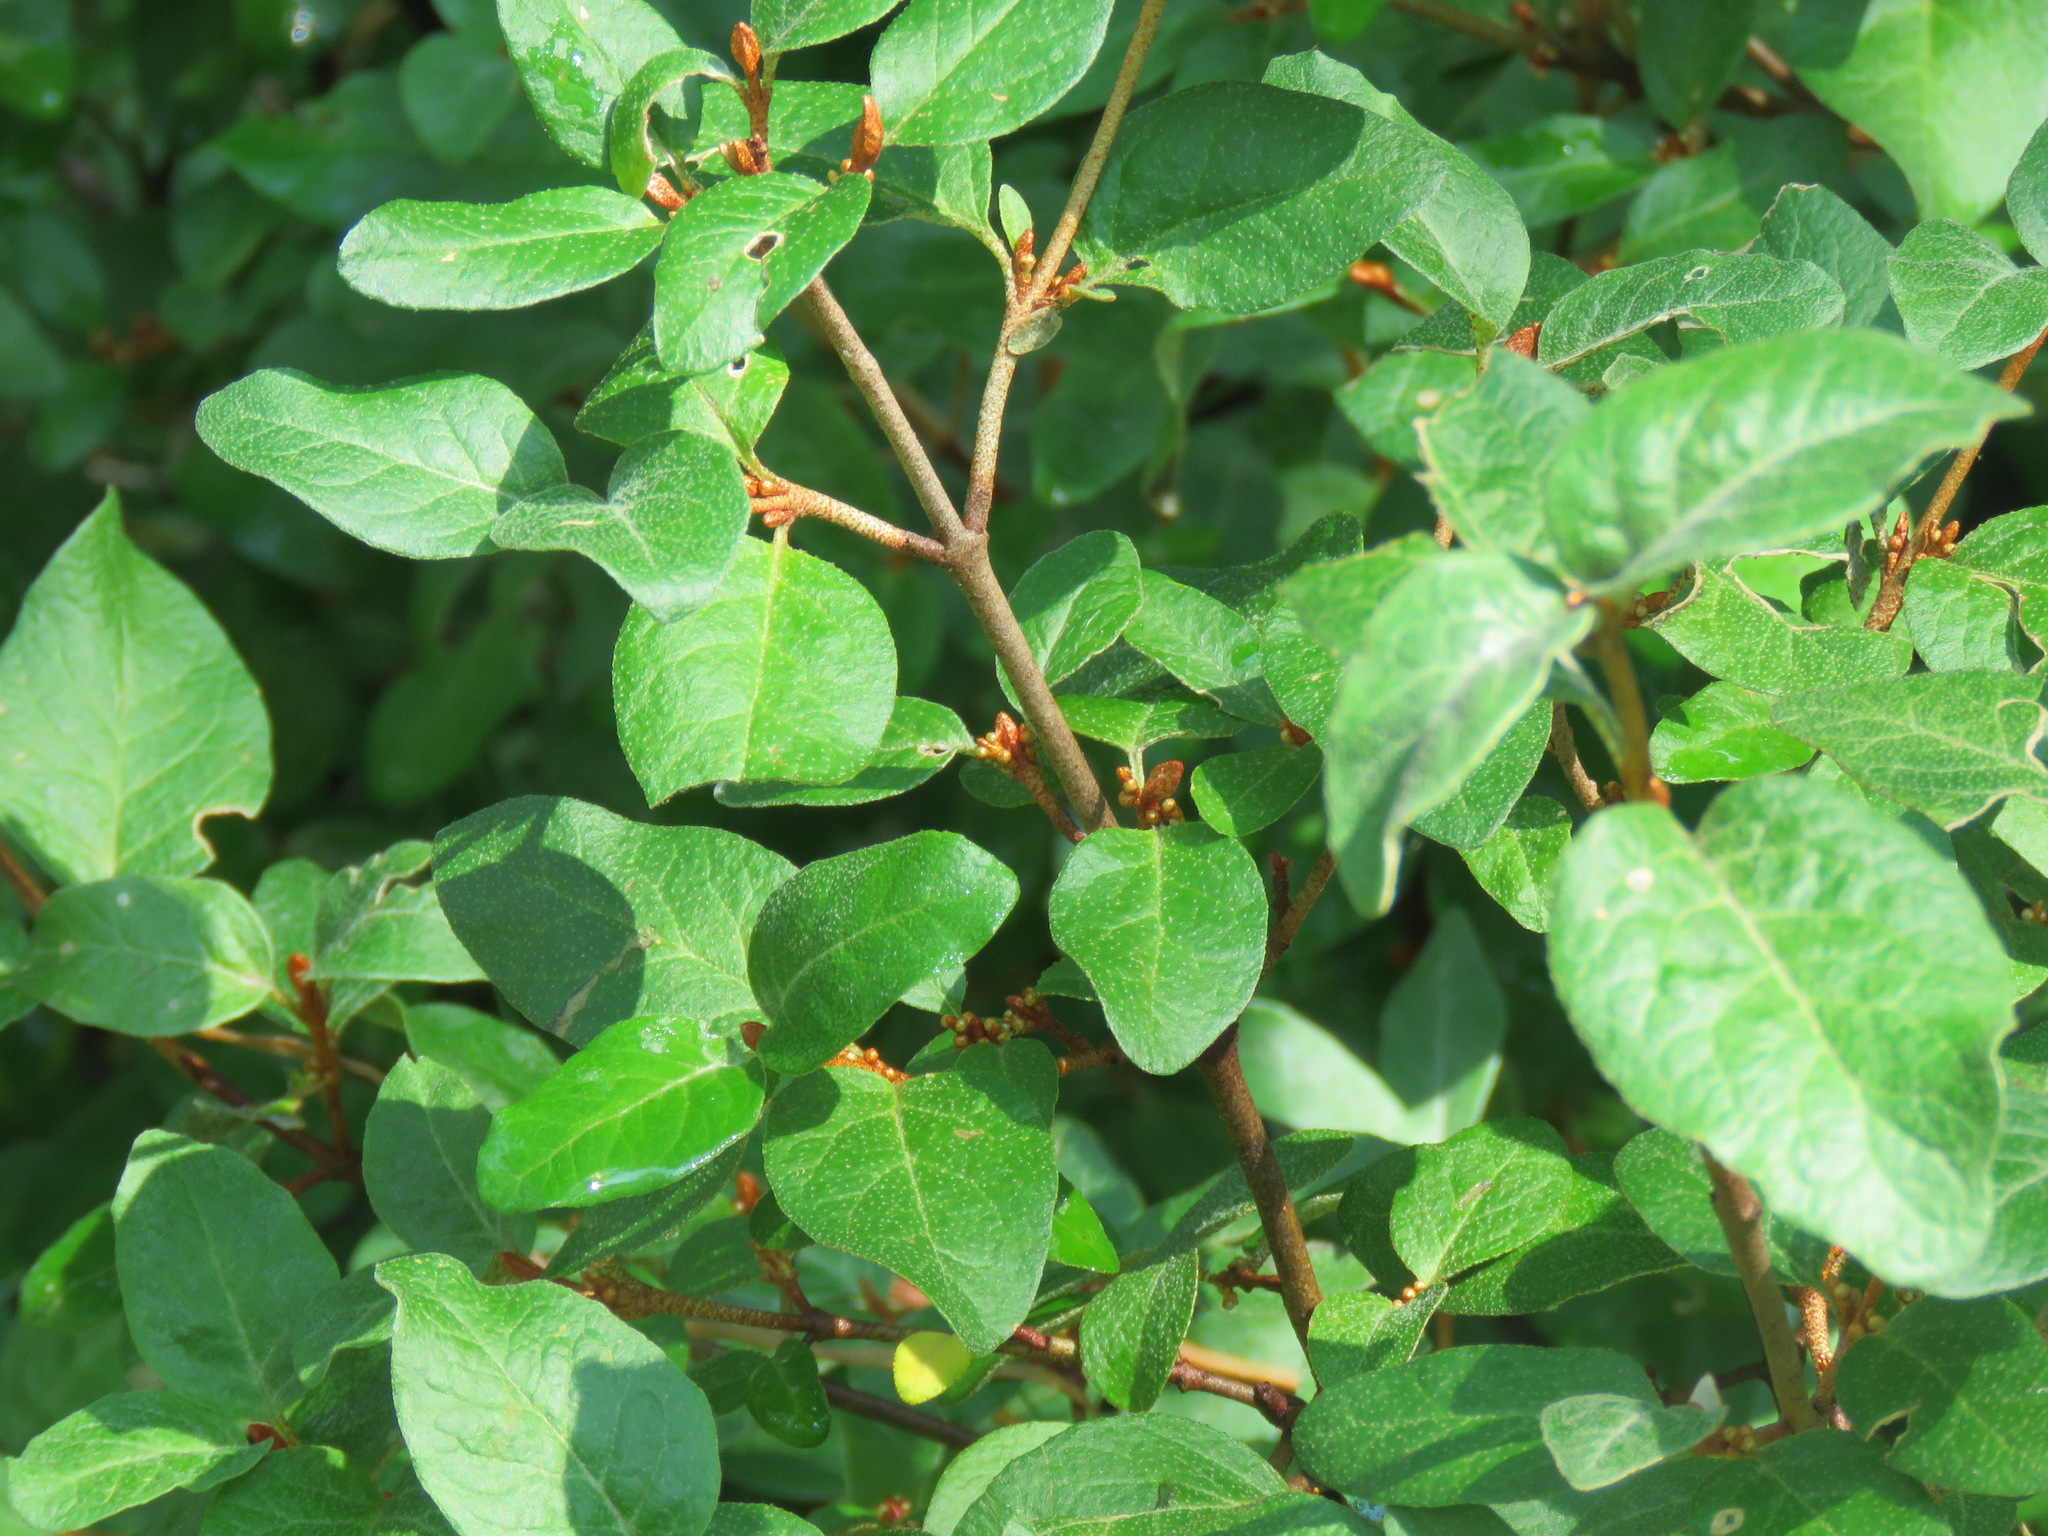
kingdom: Plantae
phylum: Tracheophyta
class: Magnoliopsida
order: Rosales
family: Elaeagnaceae
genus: Shepherdia
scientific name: Shepherdia canadensis
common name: Soapberry
